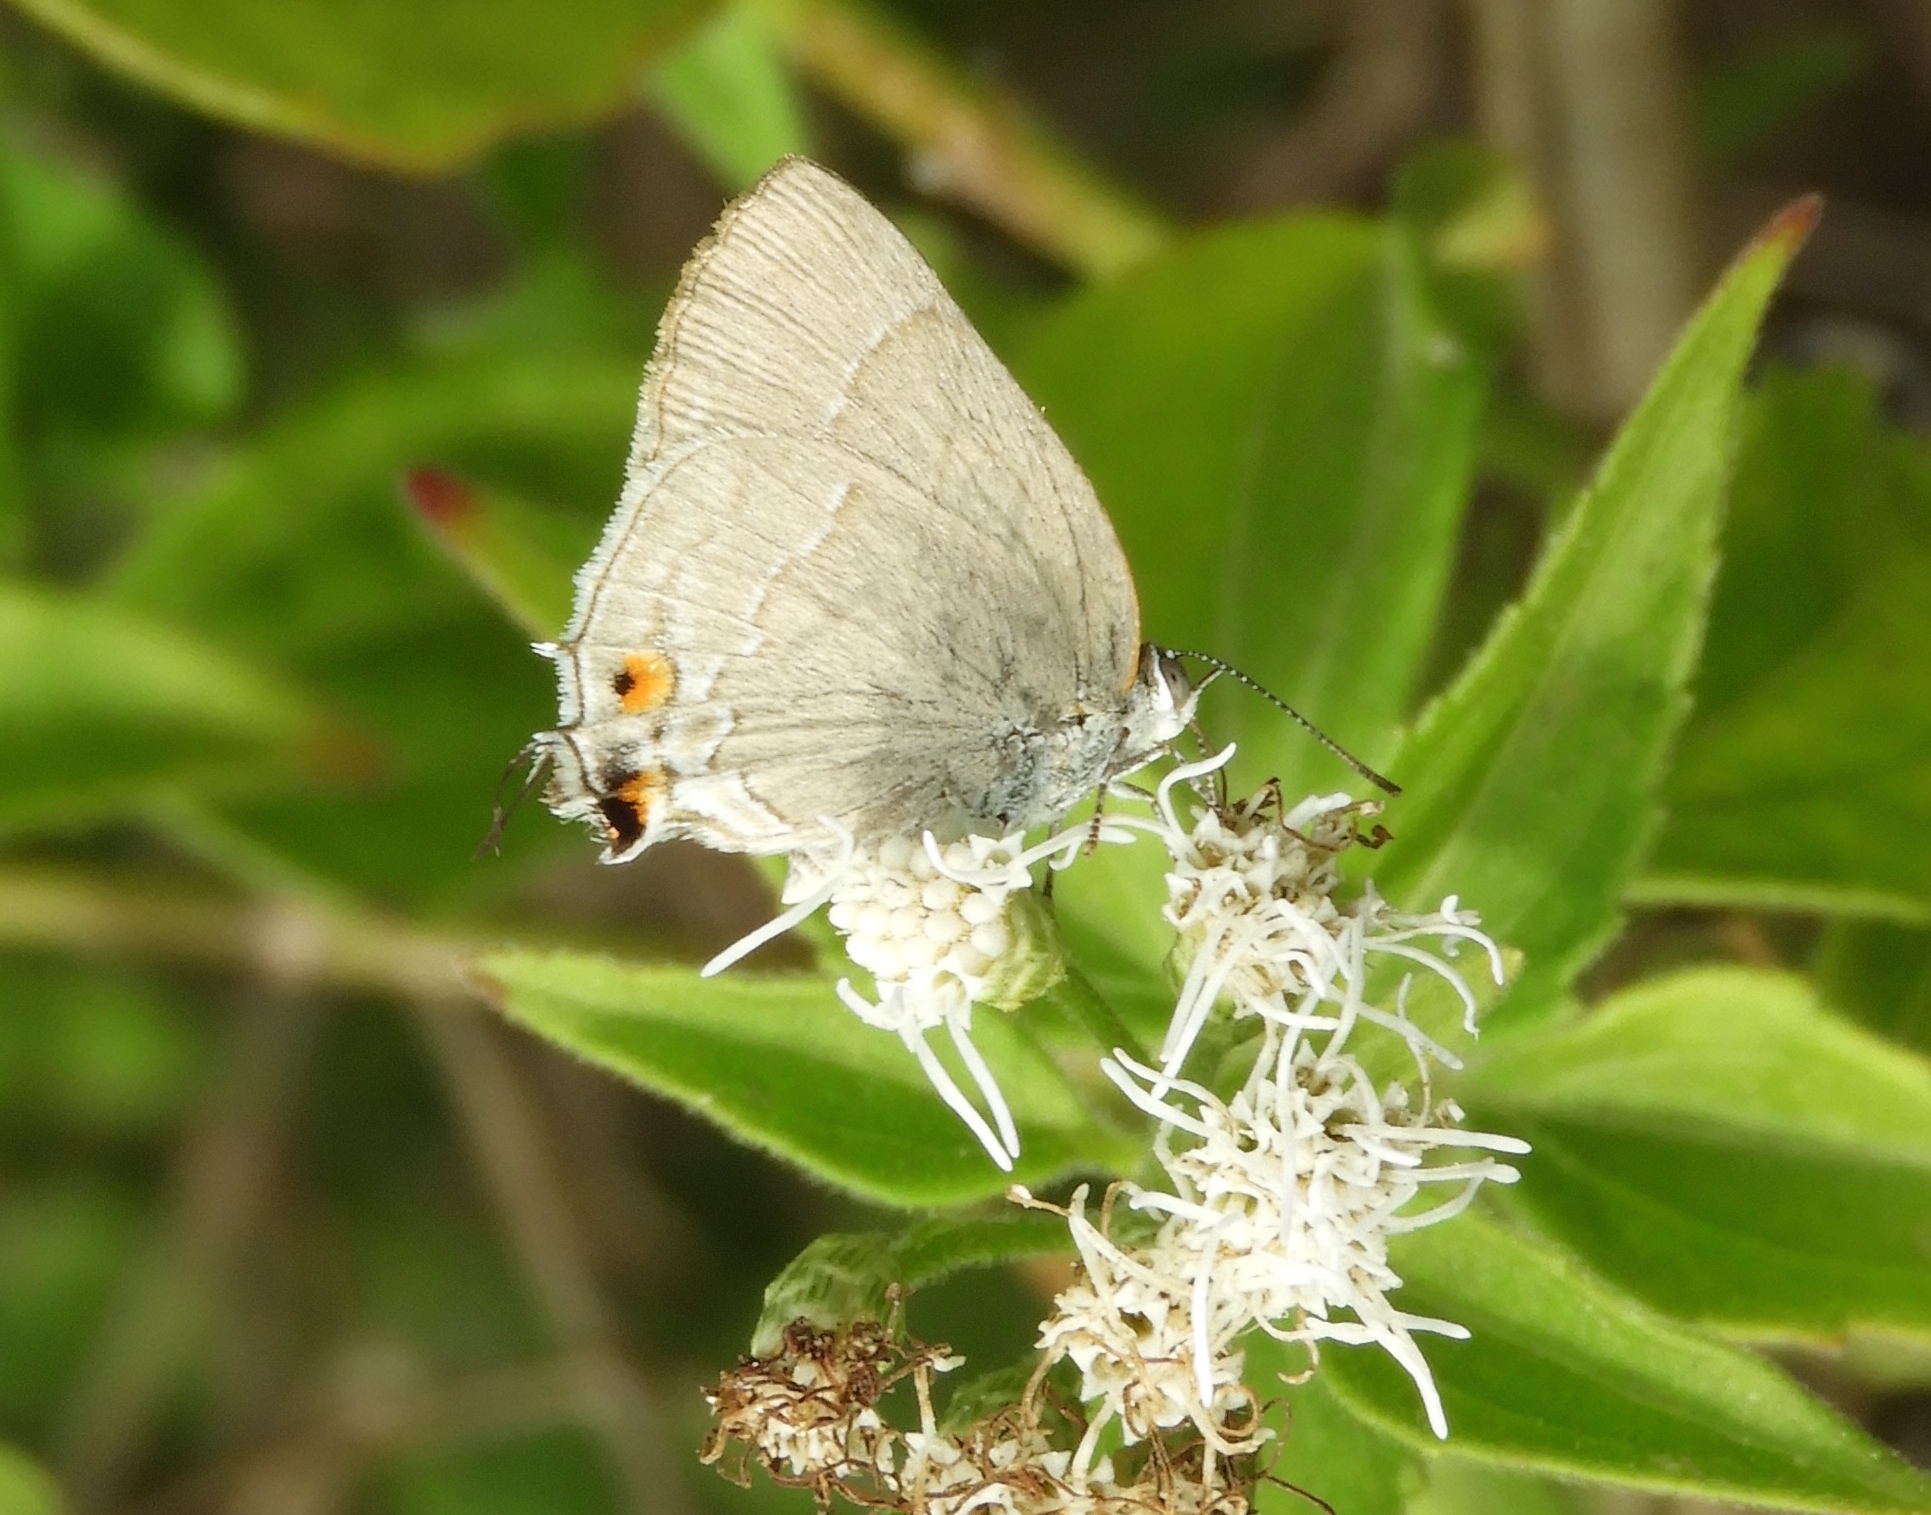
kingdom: Animalia
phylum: Arthropoda
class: Insecta
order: Lepidoptera
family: Lycaenidae
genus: Thecla
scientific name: Thecla marius
